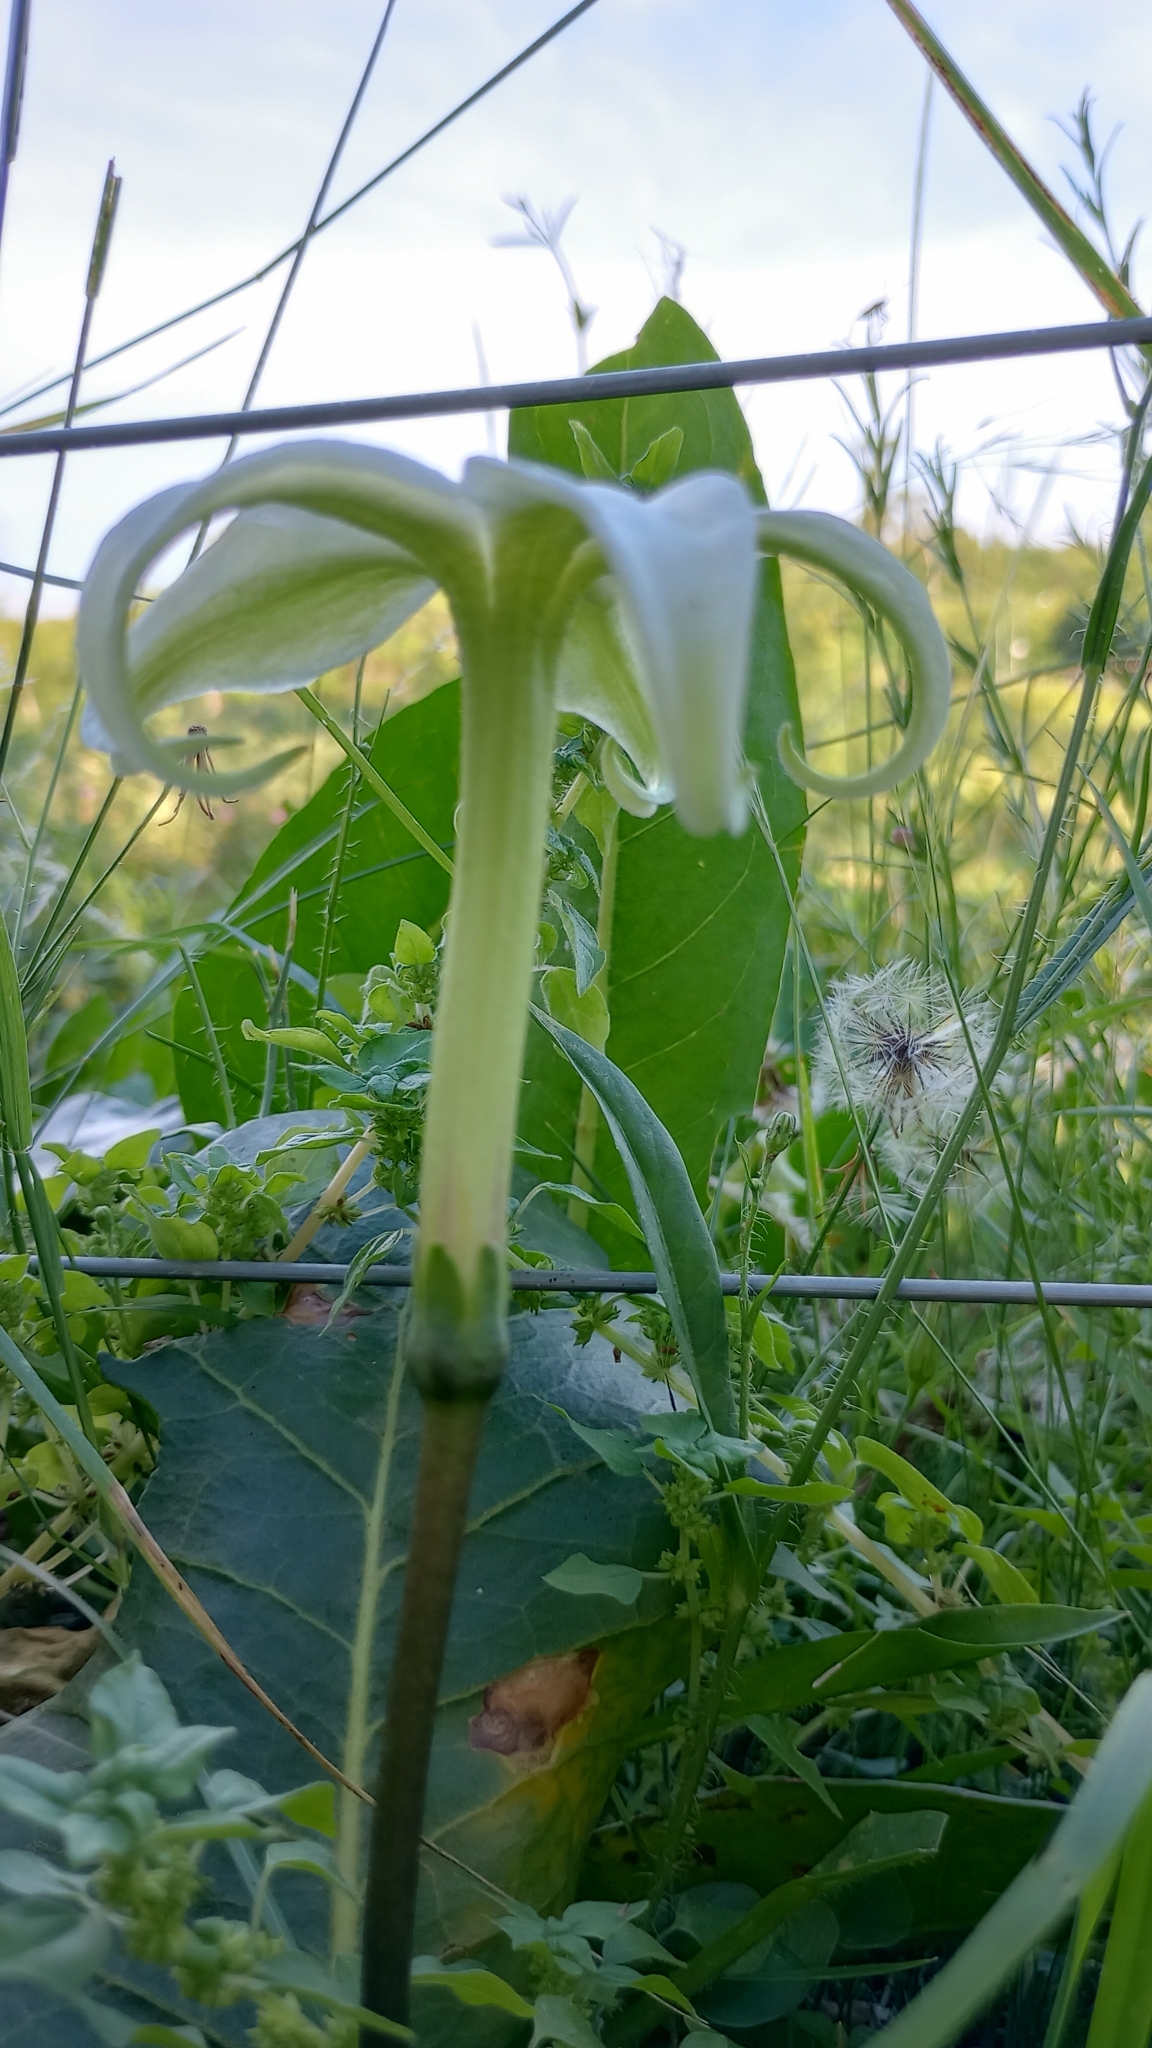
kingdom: Plantae
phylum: Tracheophyta
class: Magnoliopsida
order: Solanales
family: Solanaceae
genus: Jaborosa
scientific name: Jaborosa integrifolia
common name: Springblossom
